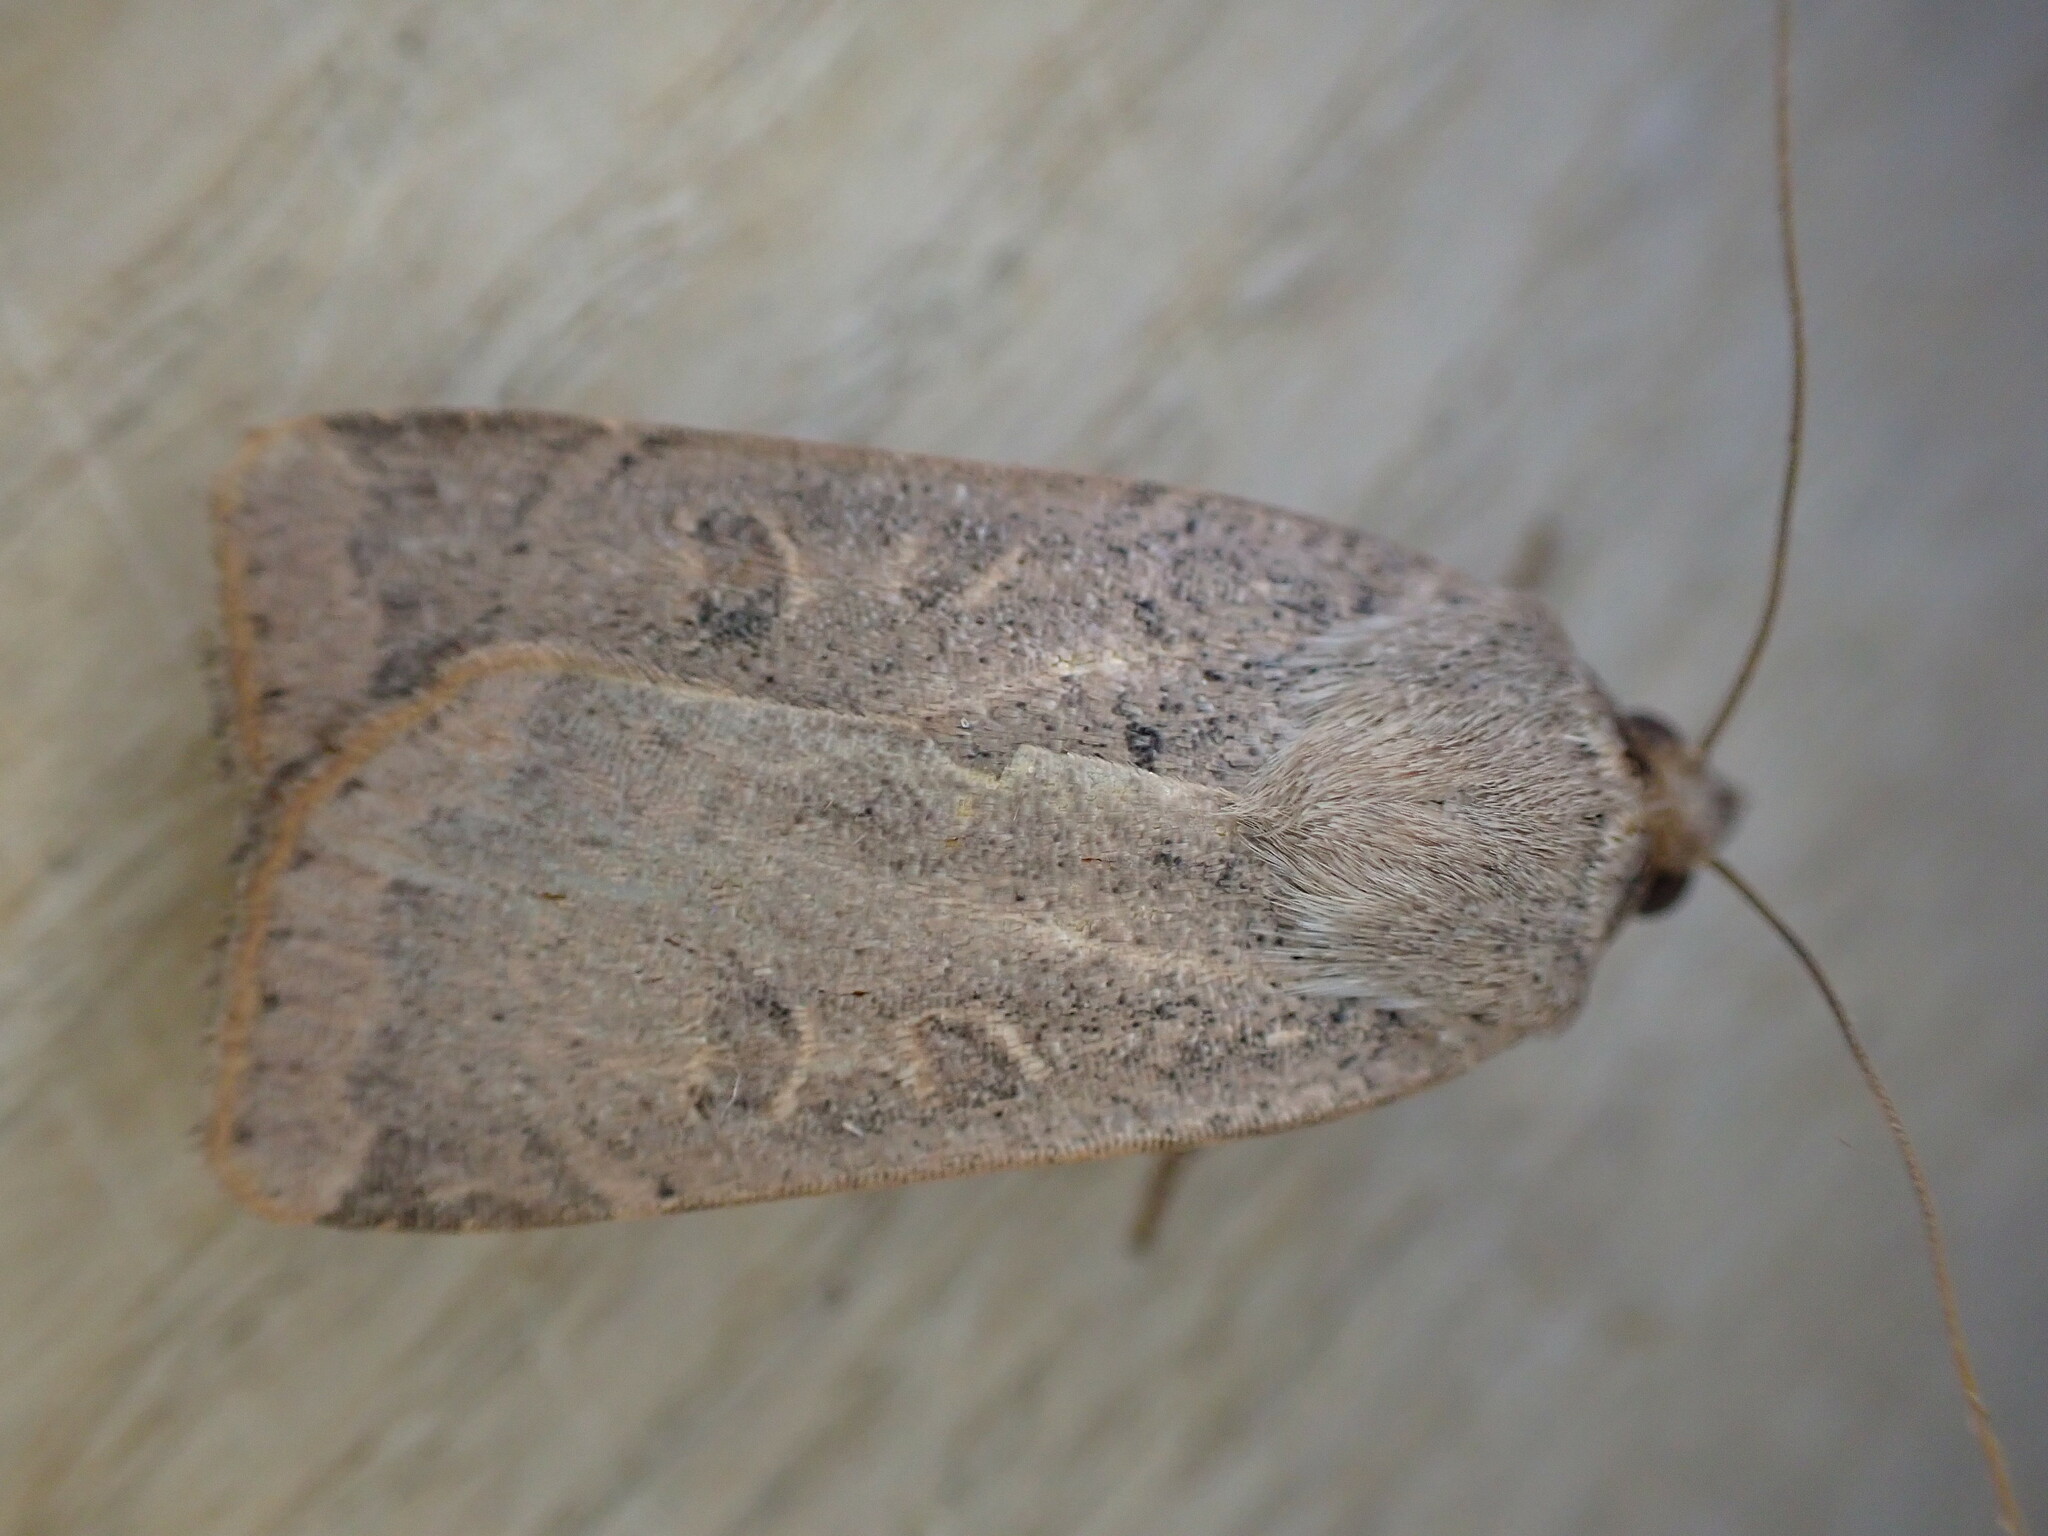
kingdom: Animalia
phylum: Arthropoda
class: Insecta
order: Lepidoptera
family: Noctuidae
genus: Noctua
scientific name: Noctua comes
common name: Lesser yellow underwing
